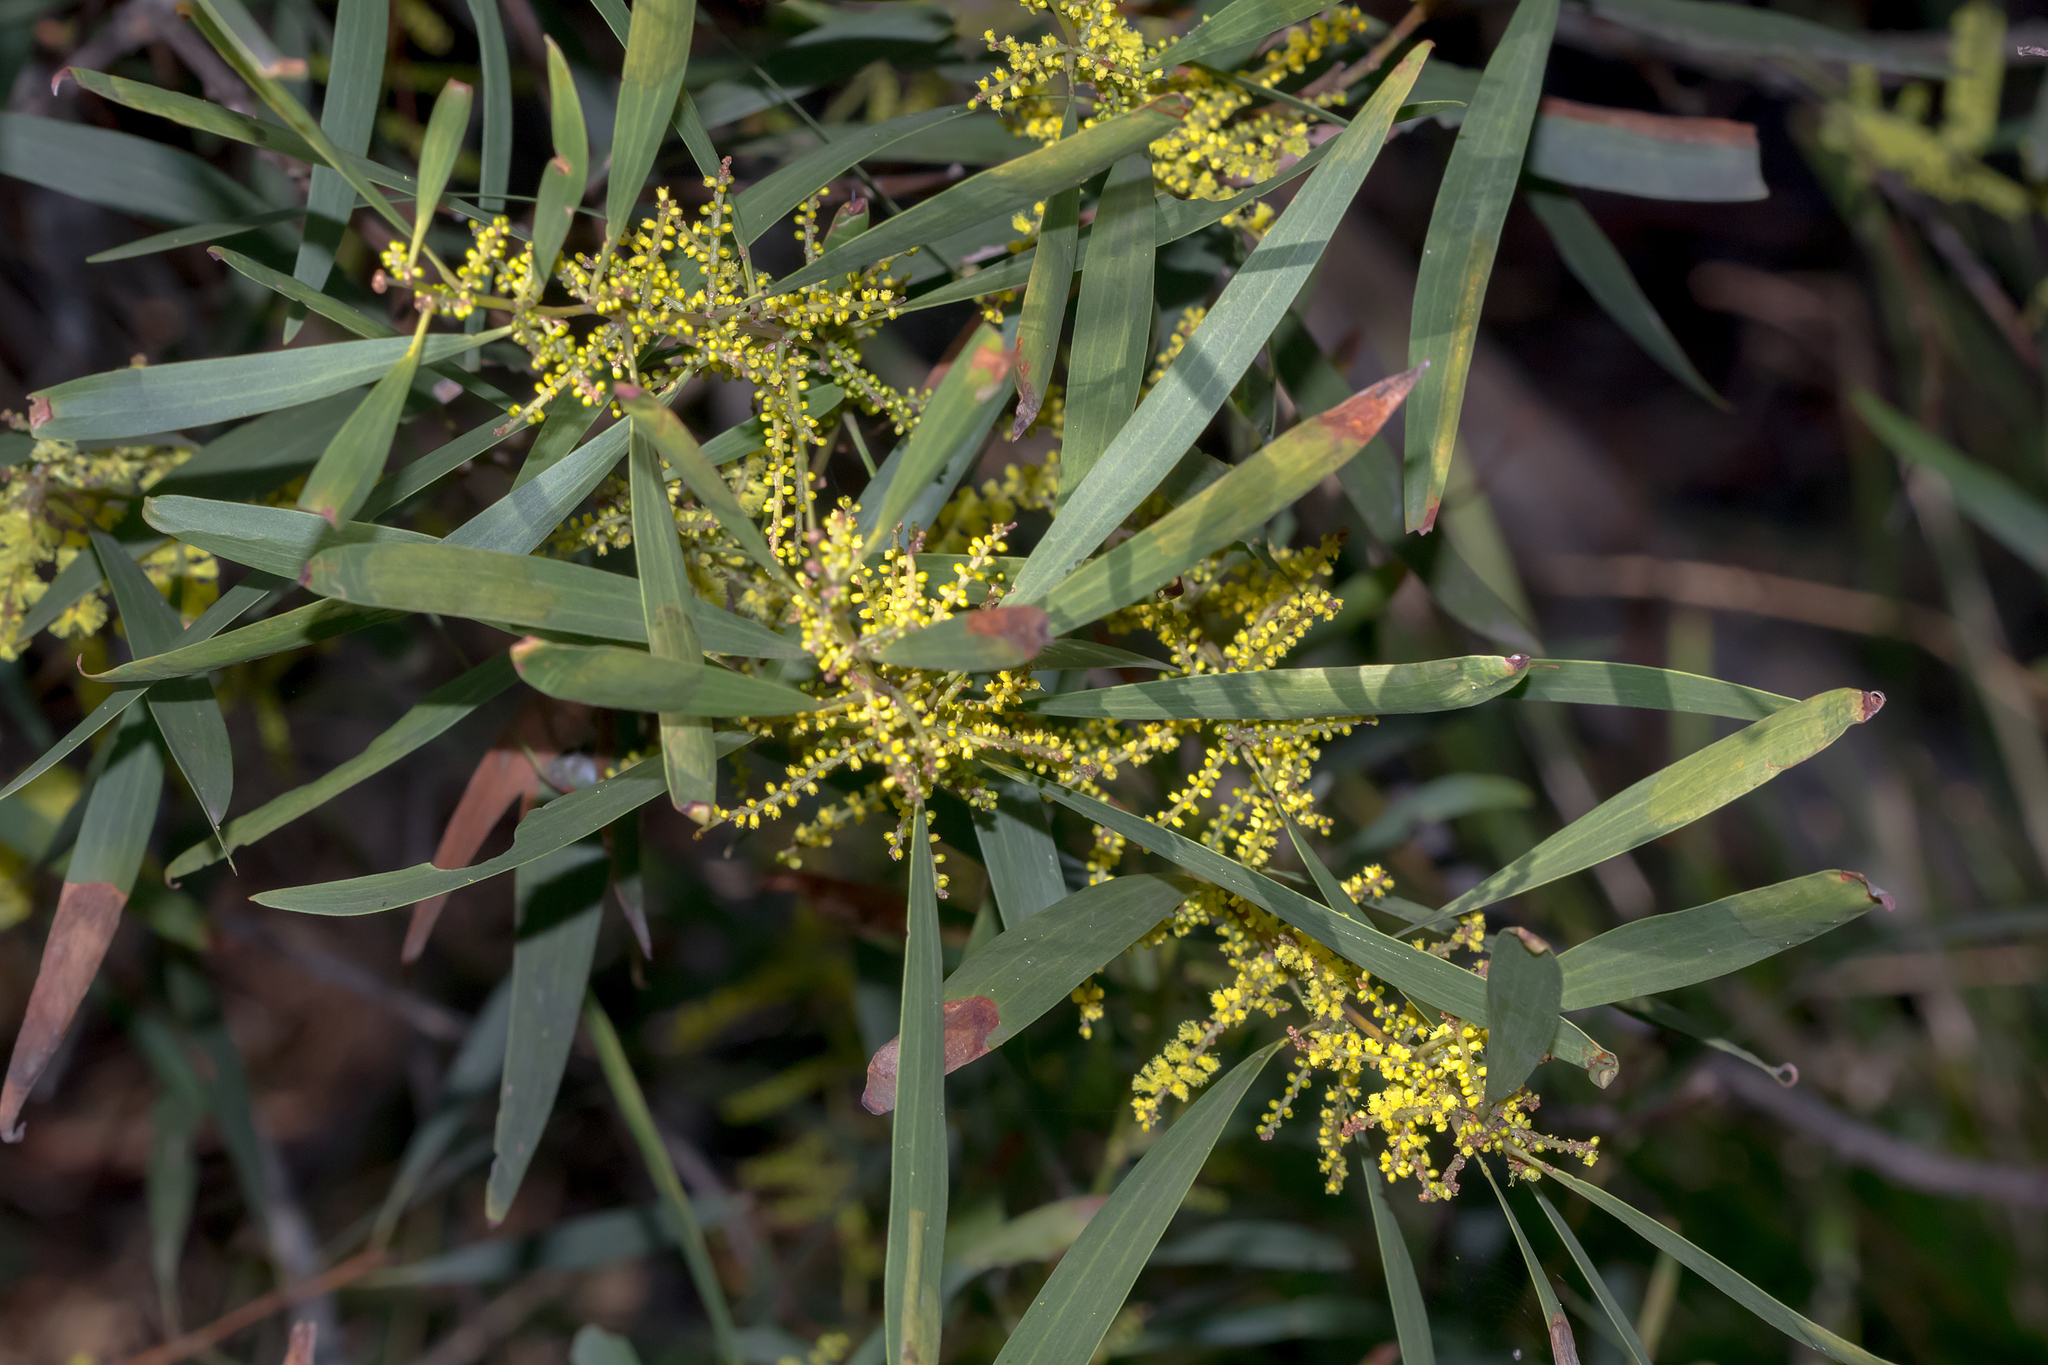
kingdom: Plantae
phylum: Tracheophyta
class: Magnoliopsida
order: Fabales
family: Fabaceae
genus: Acacia
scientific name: Acacia longifolia
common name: Sydney golden wattle
